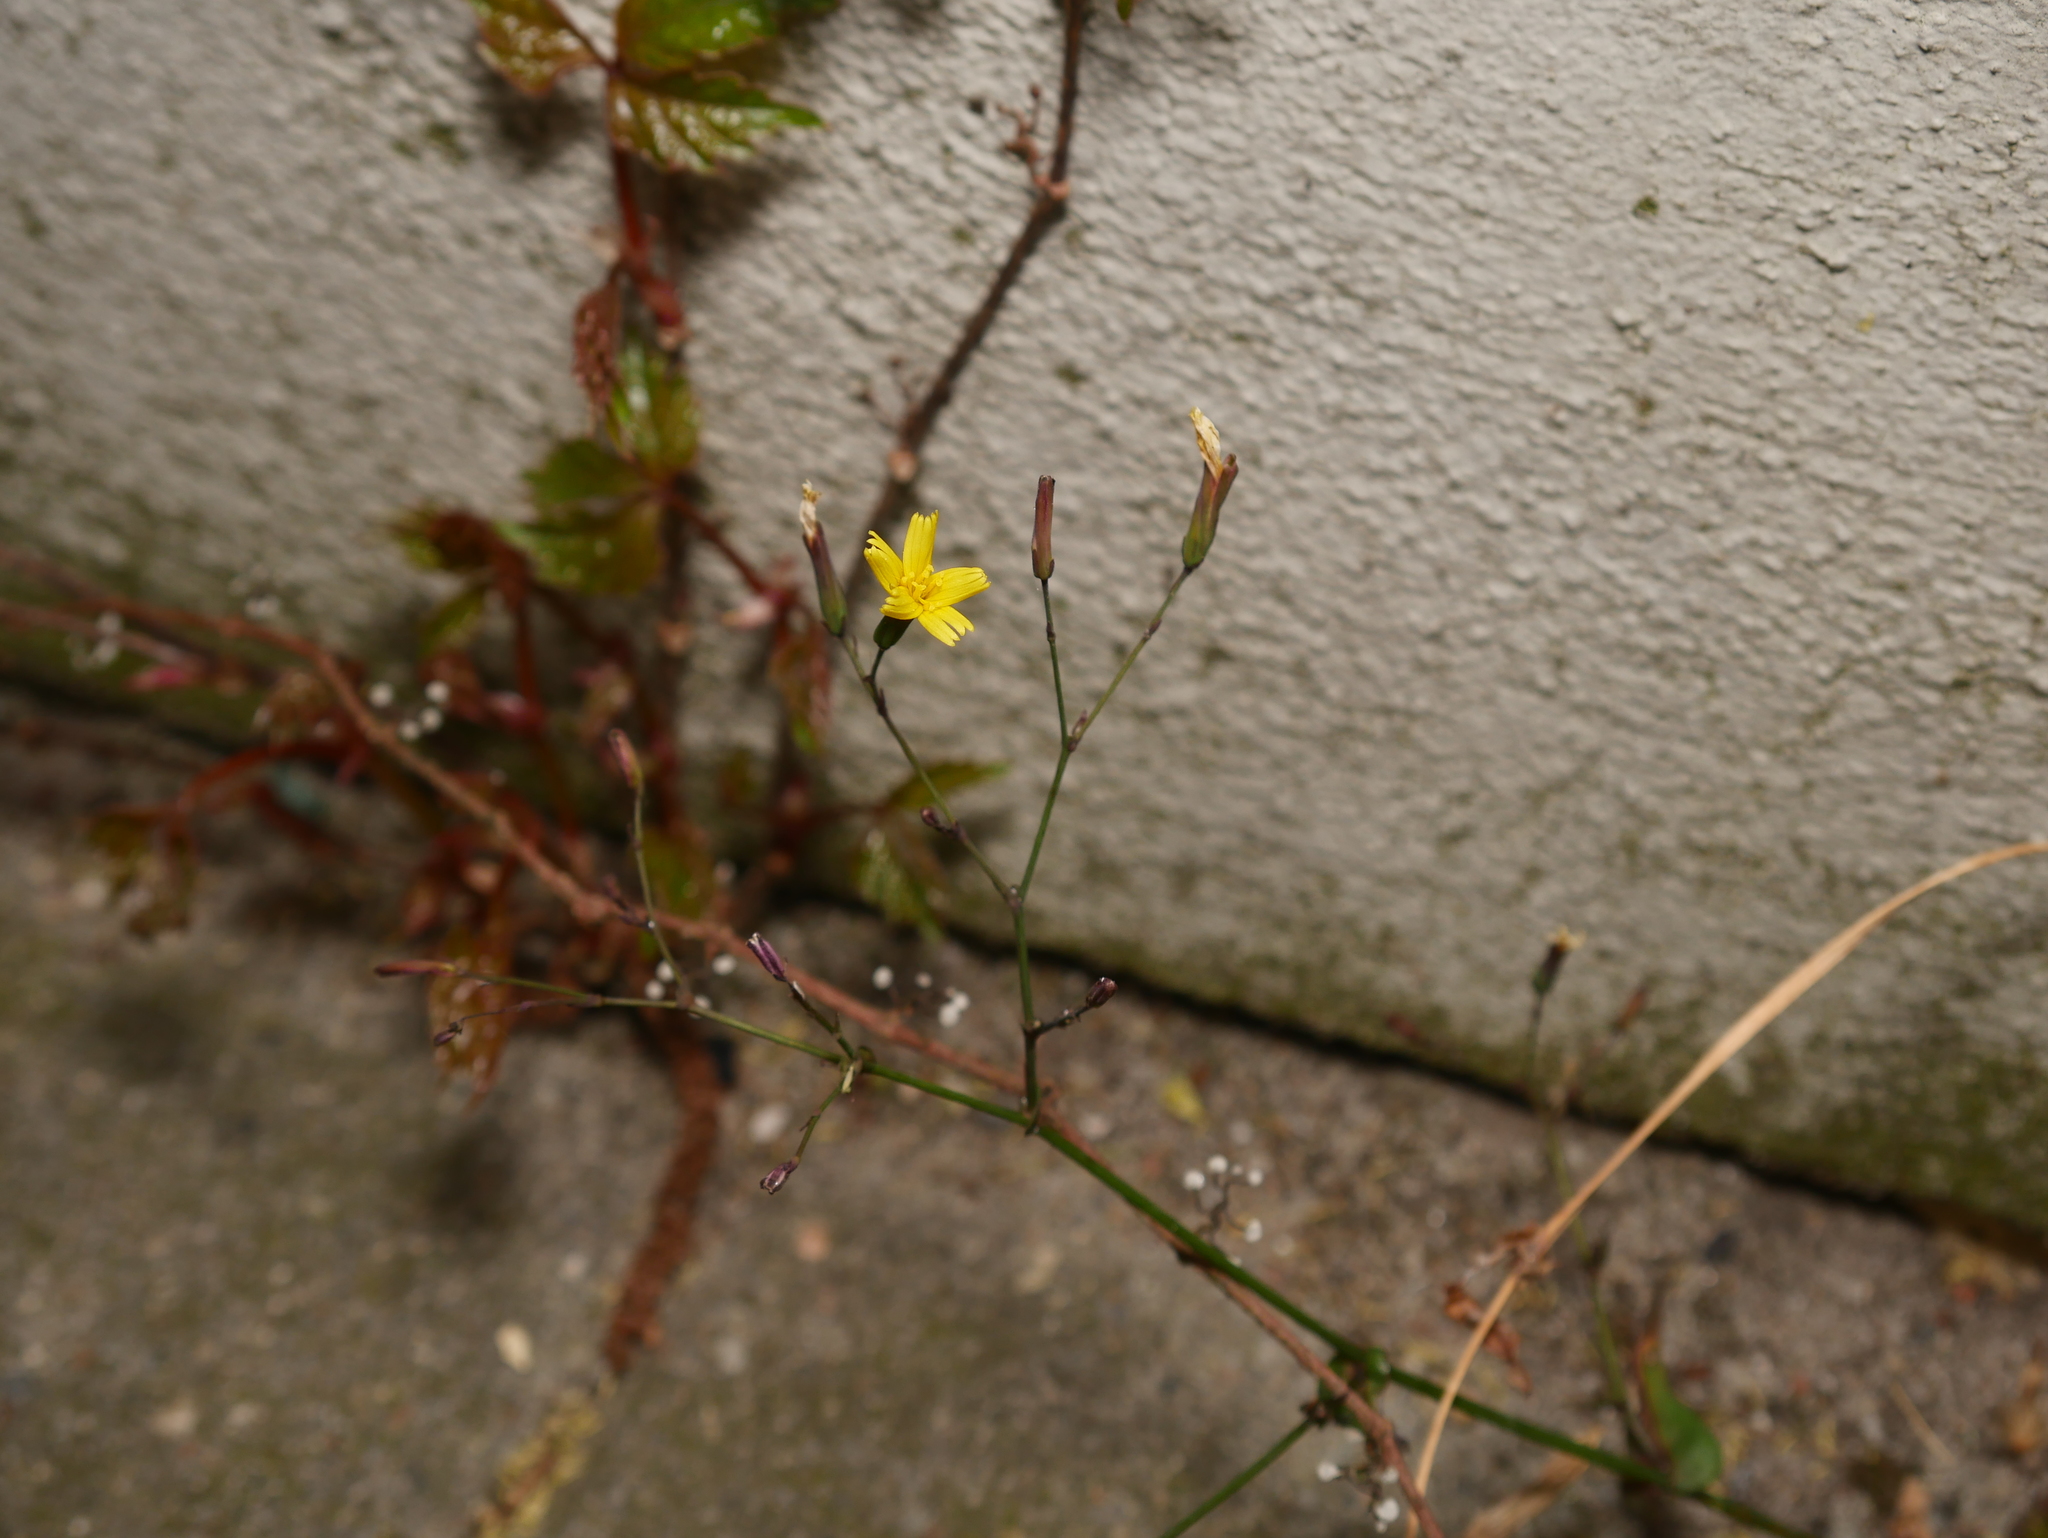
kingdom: Plantae
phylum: Tracheophyta
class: Magnoliopsida
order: Asterales
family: Asteraceae
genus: Mycelis
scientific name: Mycelis muralis
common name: Wall lettuce
